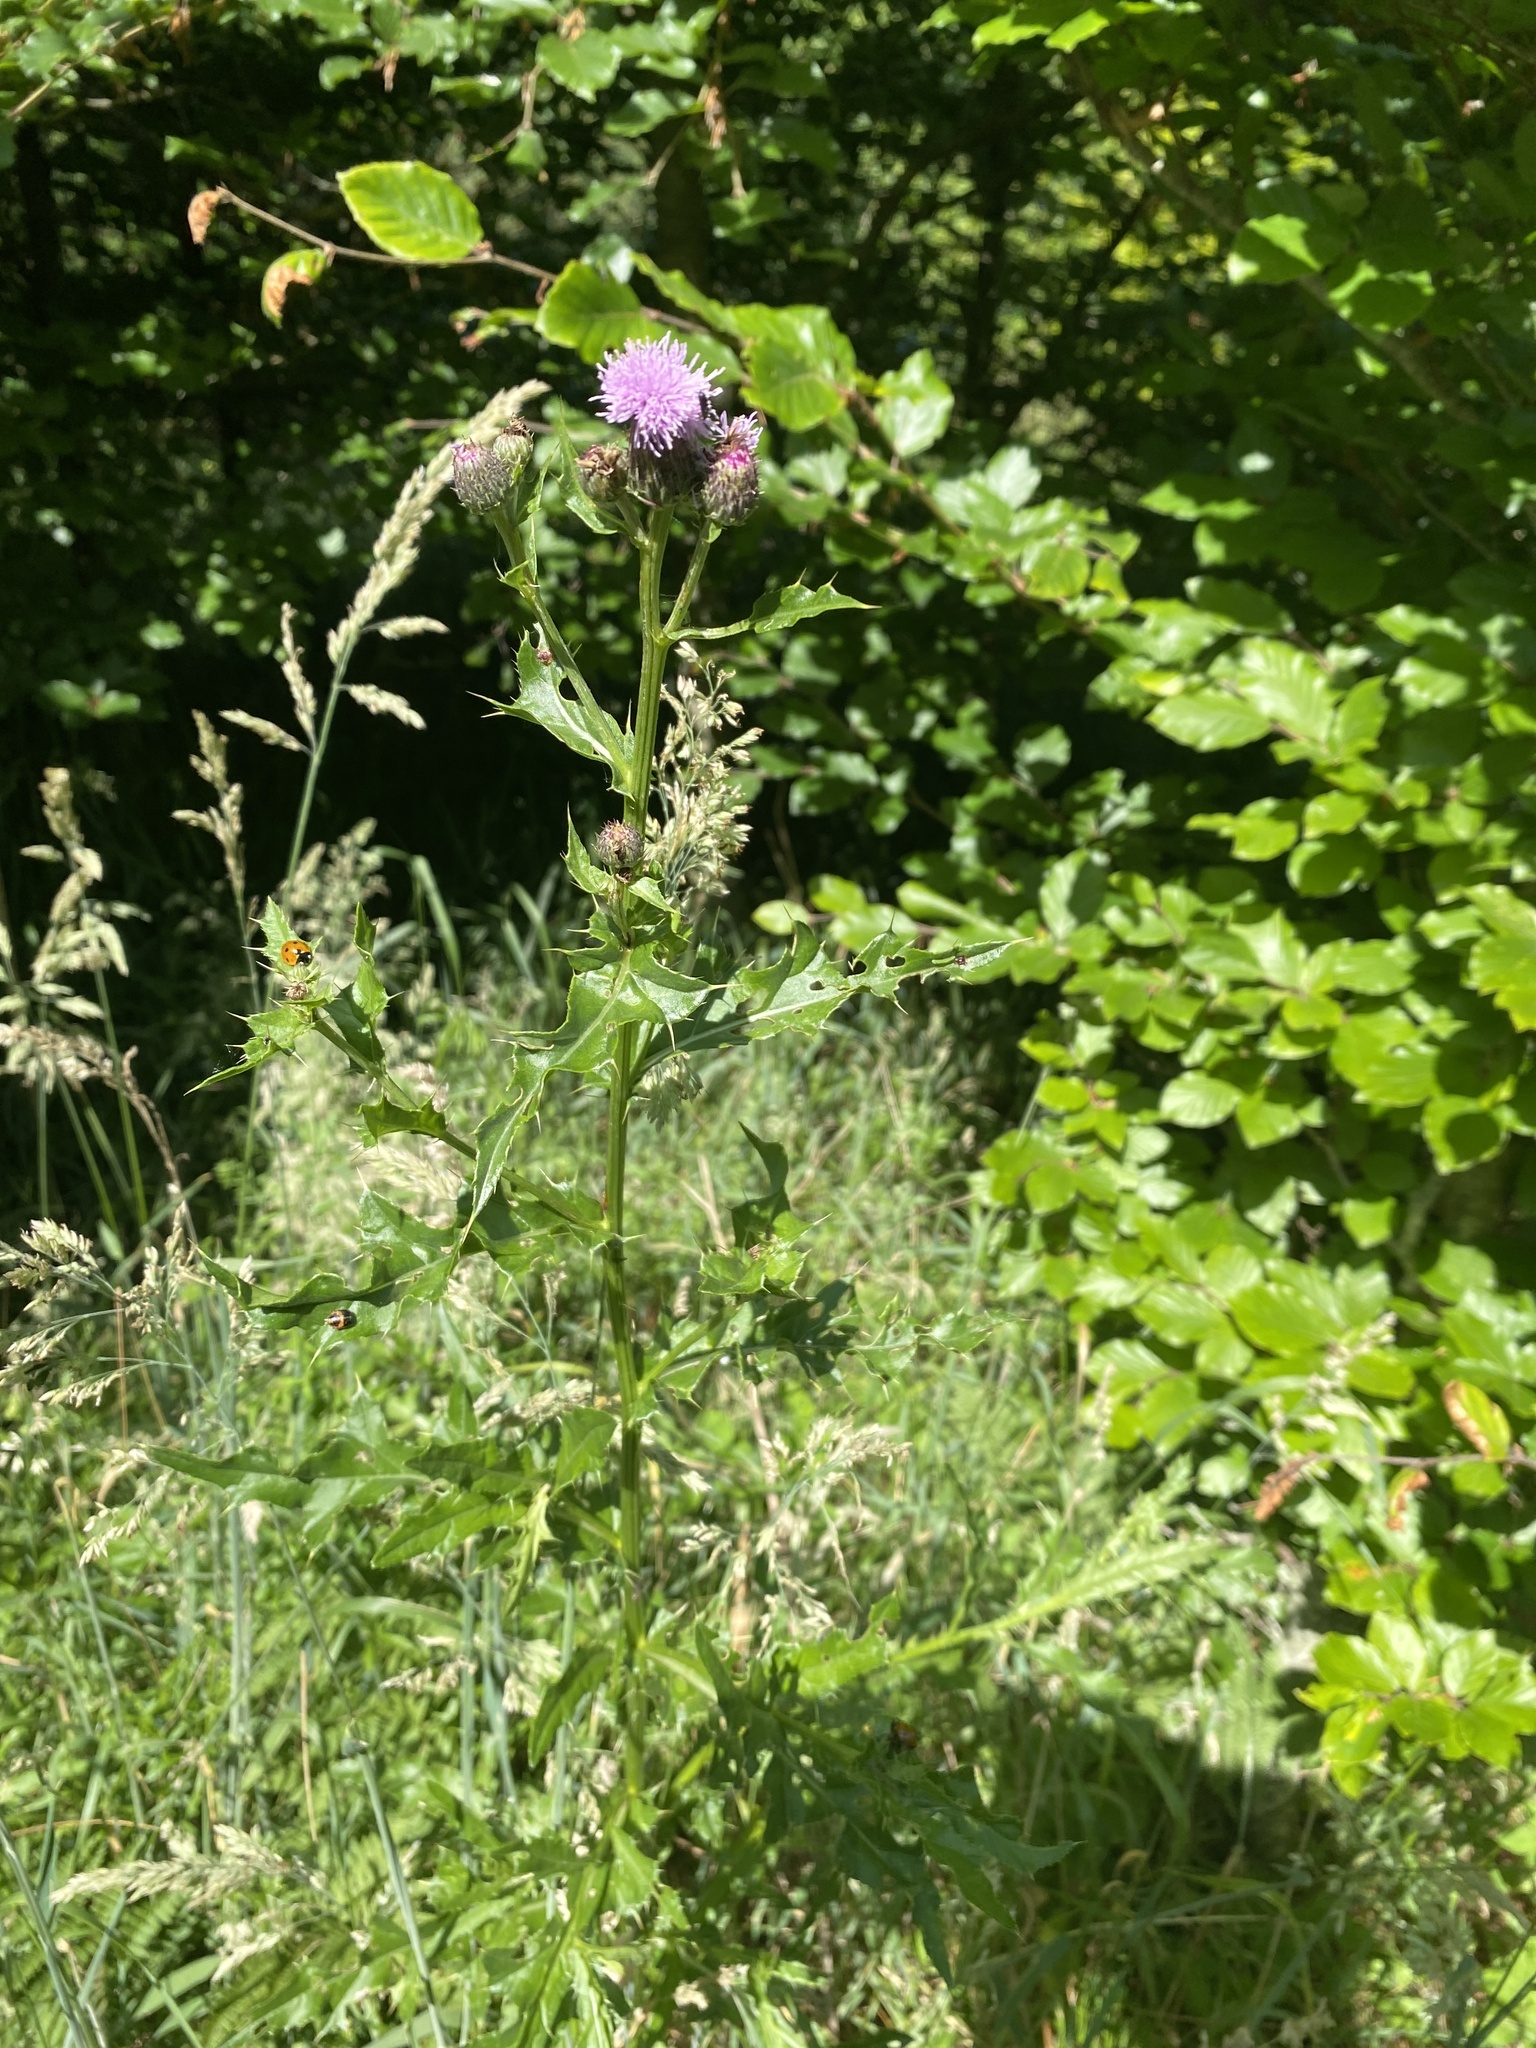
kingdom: Plantae
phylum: Tracheophyta
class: Magnoliopsida
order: Asterales
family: Asteraceae
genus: Cirsium
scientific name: Cirsium arvense
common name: Creeping thistle
